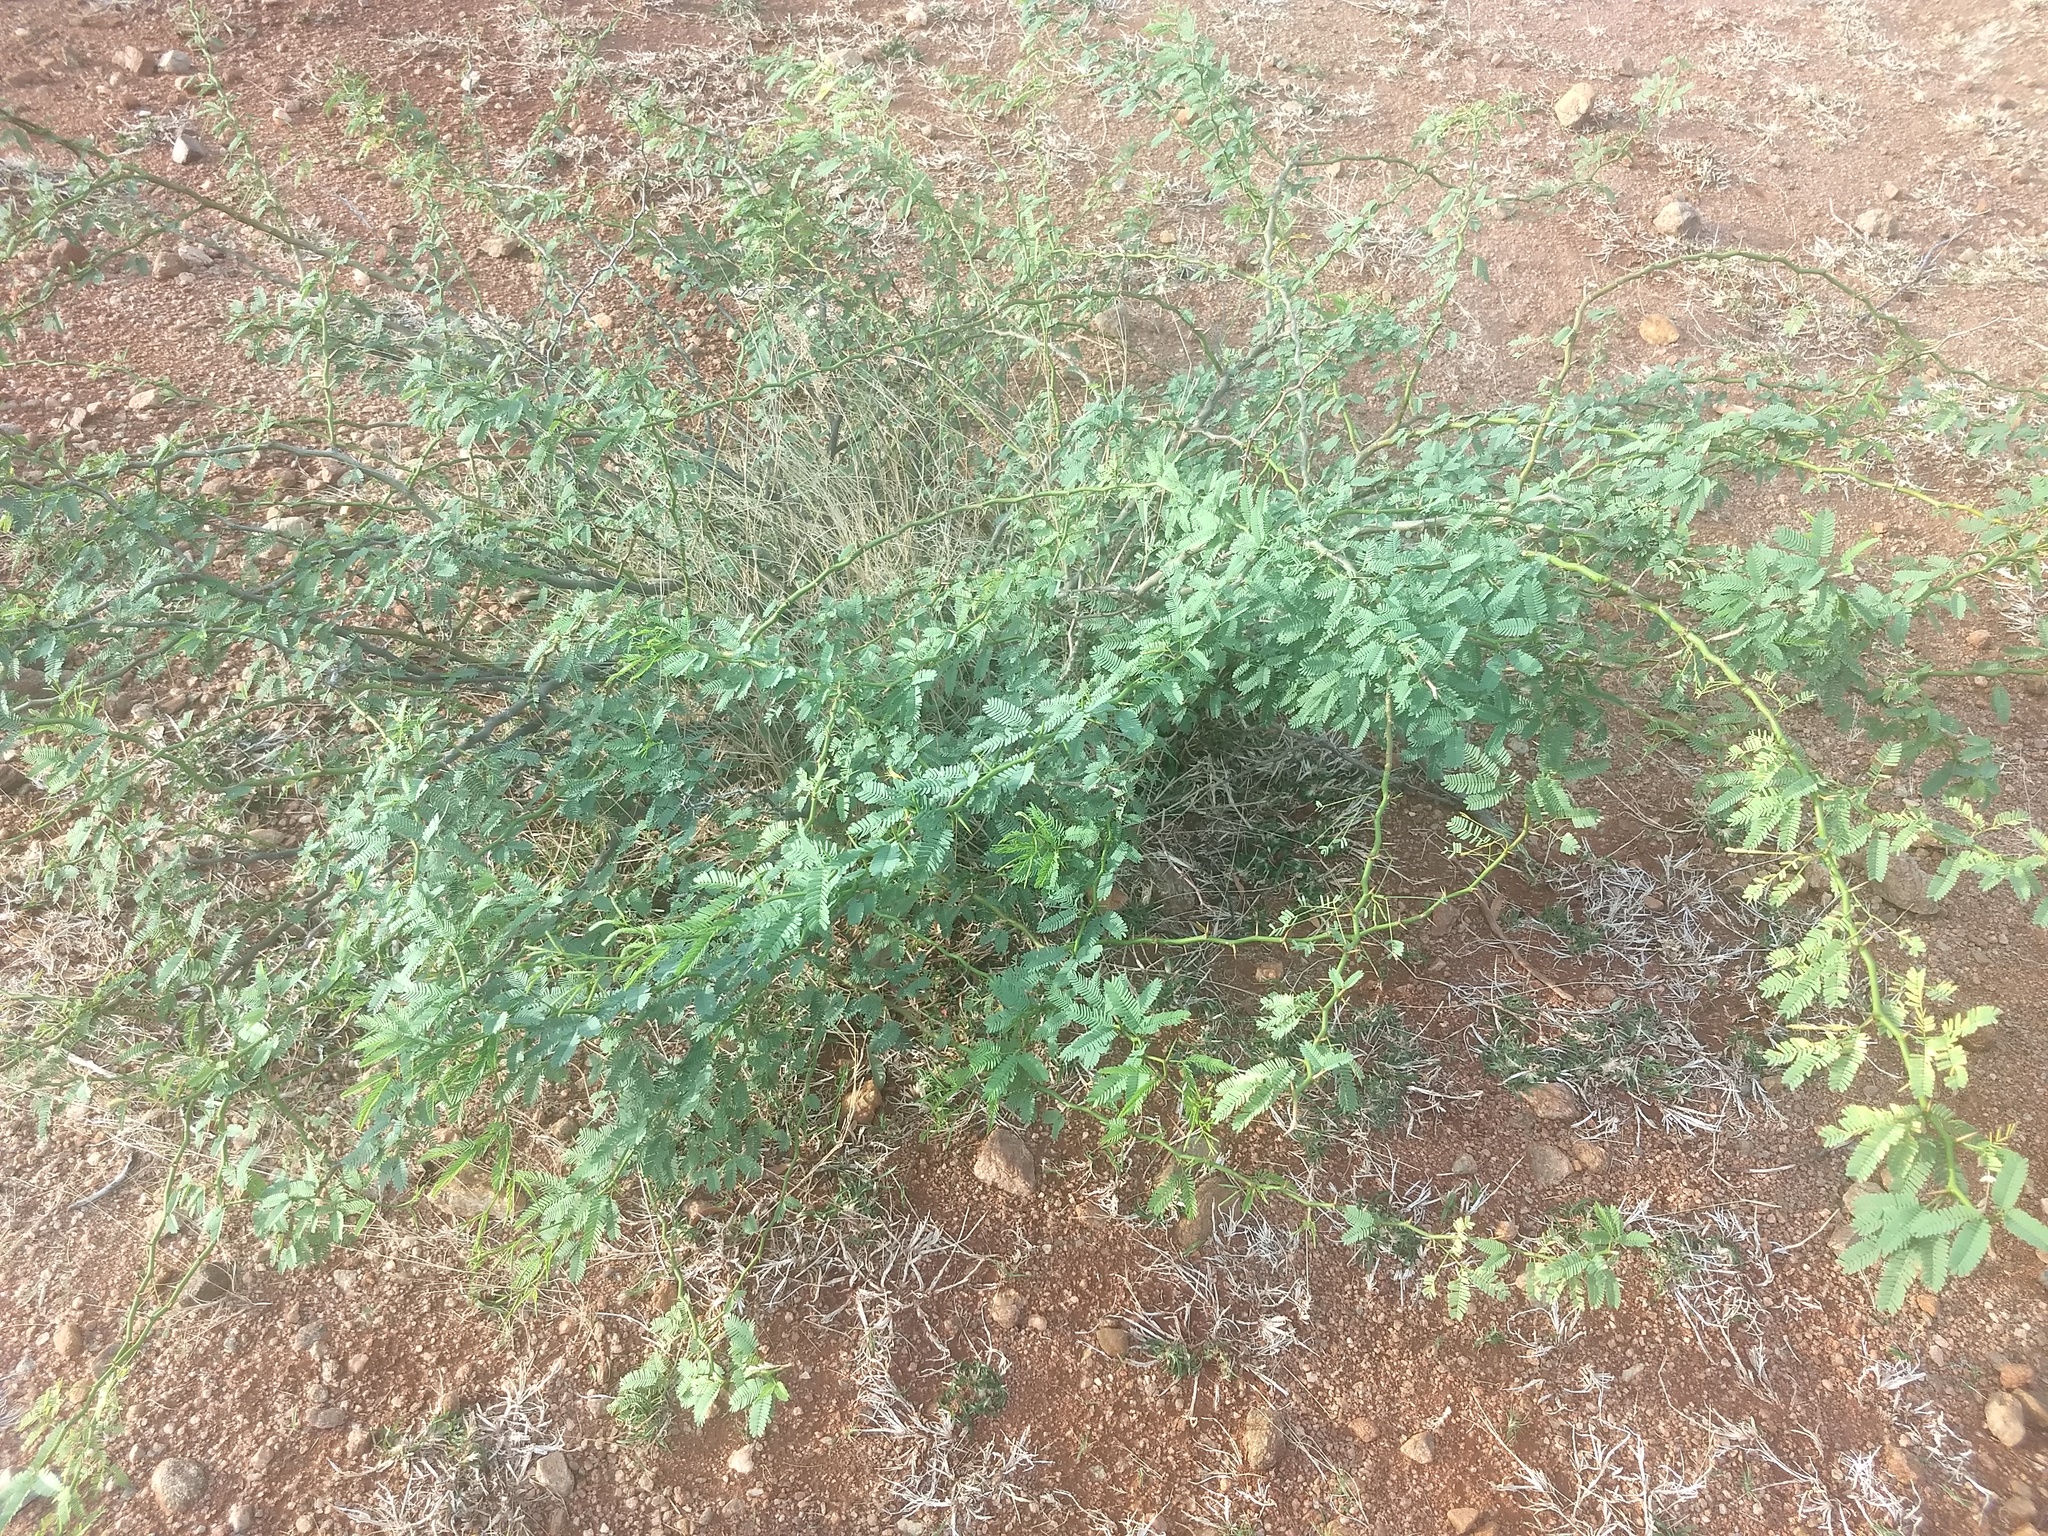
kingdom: Plantae
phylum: Tracheophyta
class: Magnoliopsida
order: Fabales
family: Fabaceae
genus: Prosopis
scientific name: Prosopis juliflora
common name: Mesquite
